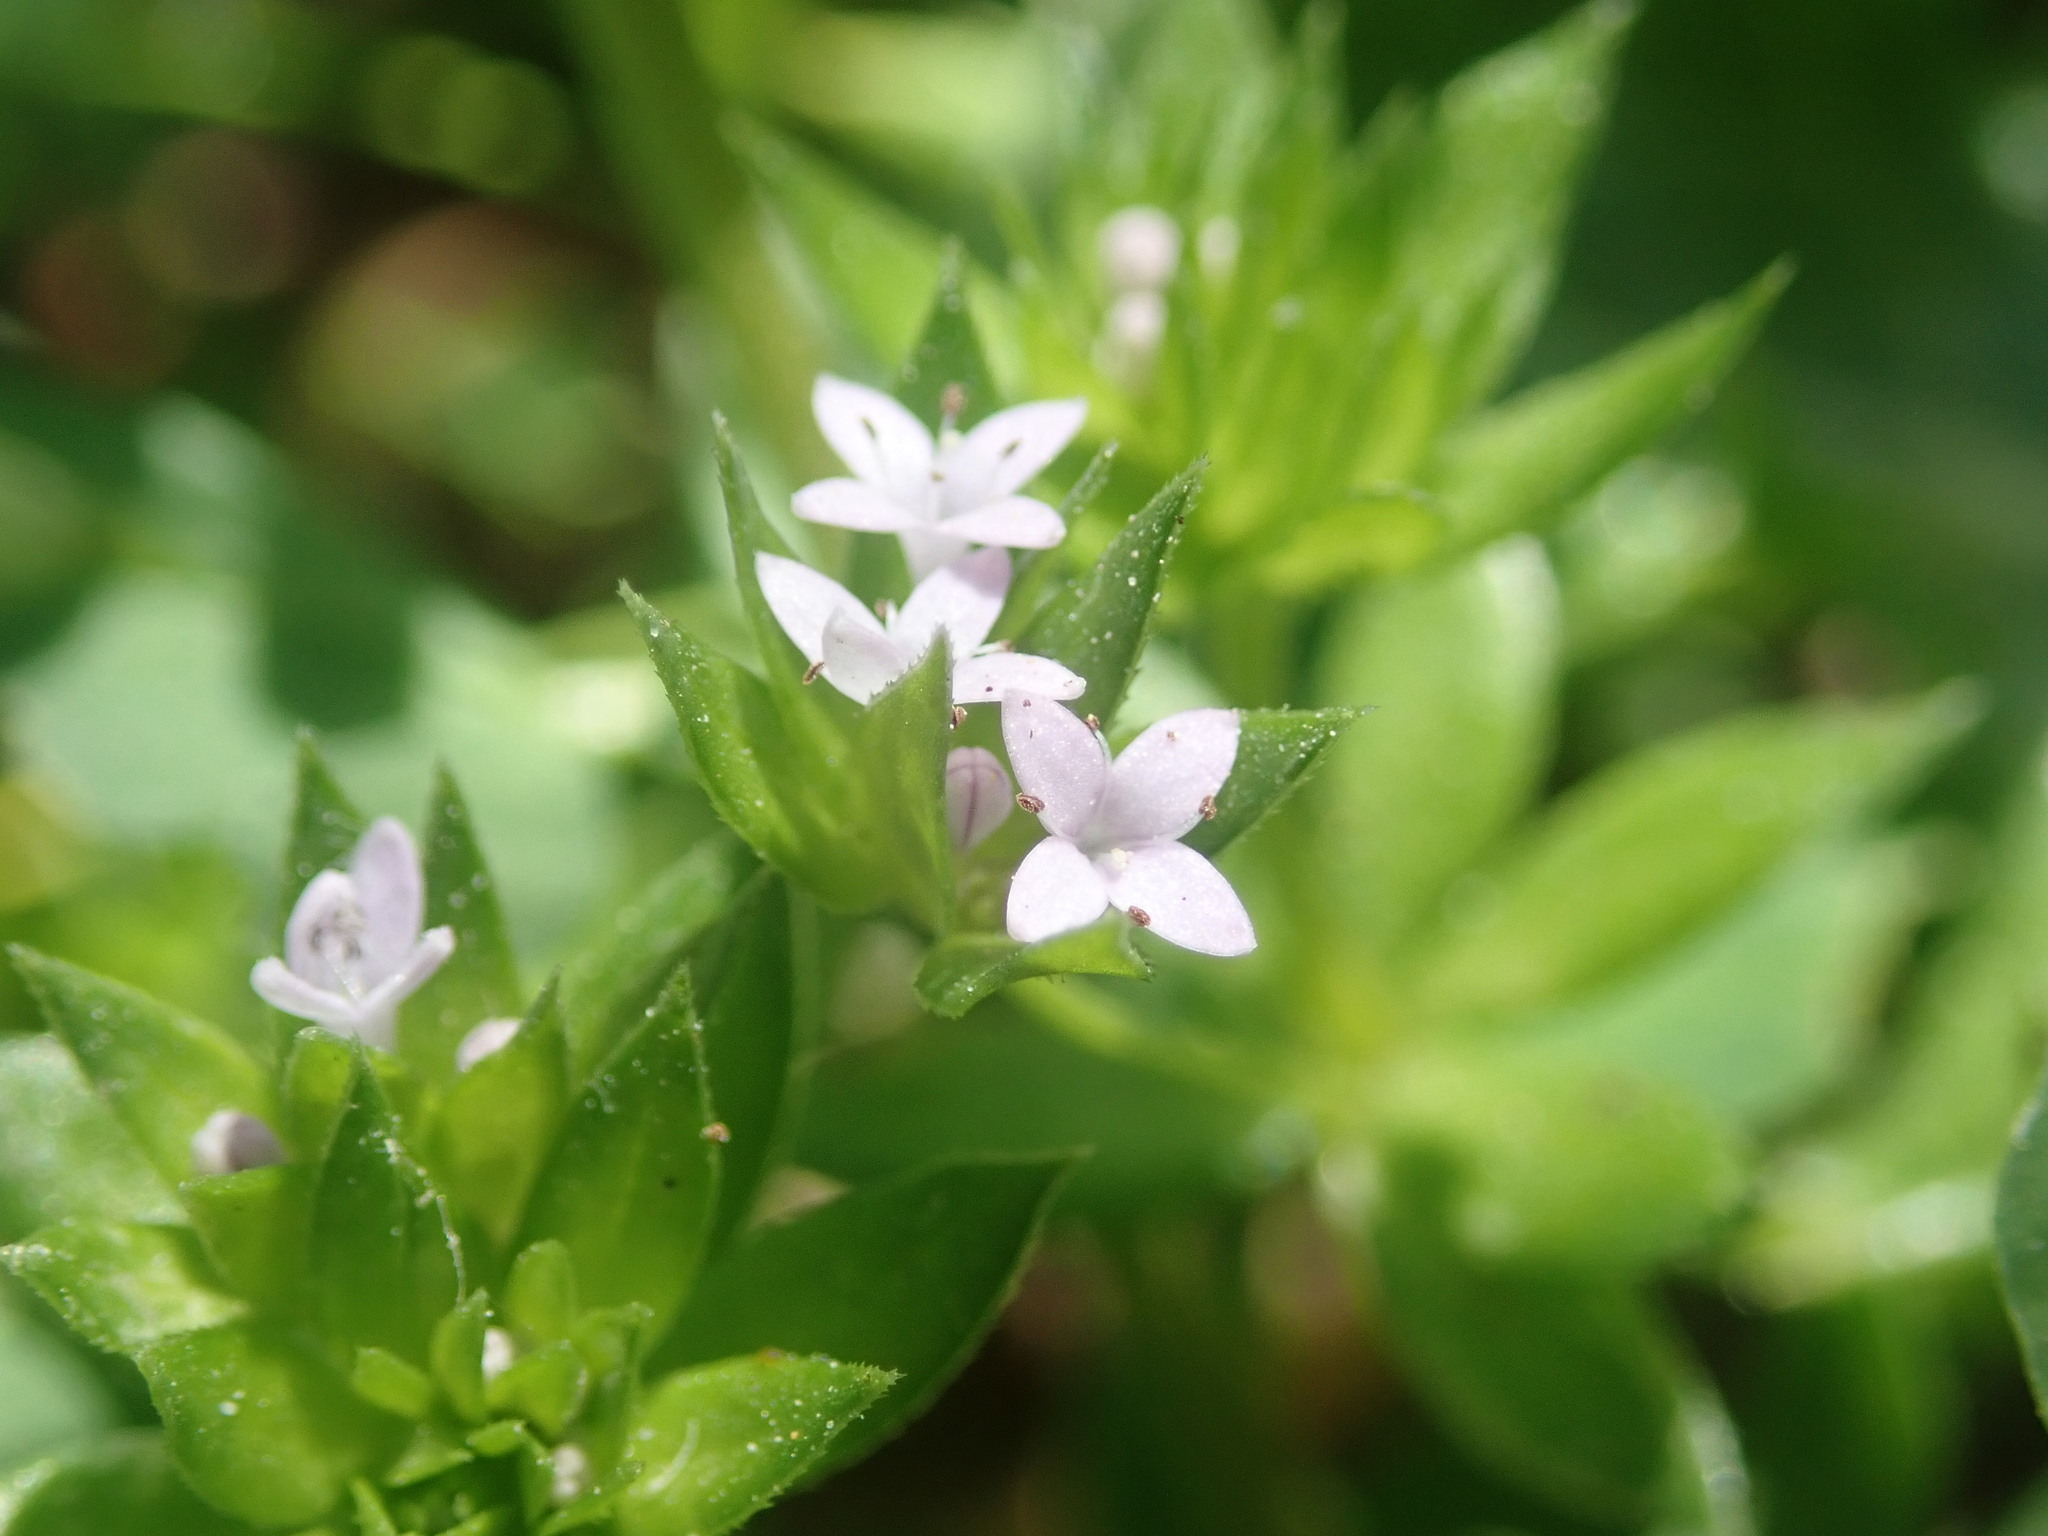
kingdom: Plantae
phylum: Tracheophyta
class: Magnoliopsida
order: Gentianales
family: Rubiaceae
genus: Sherardia
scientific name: Sherardia arvensis
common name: Field madder
